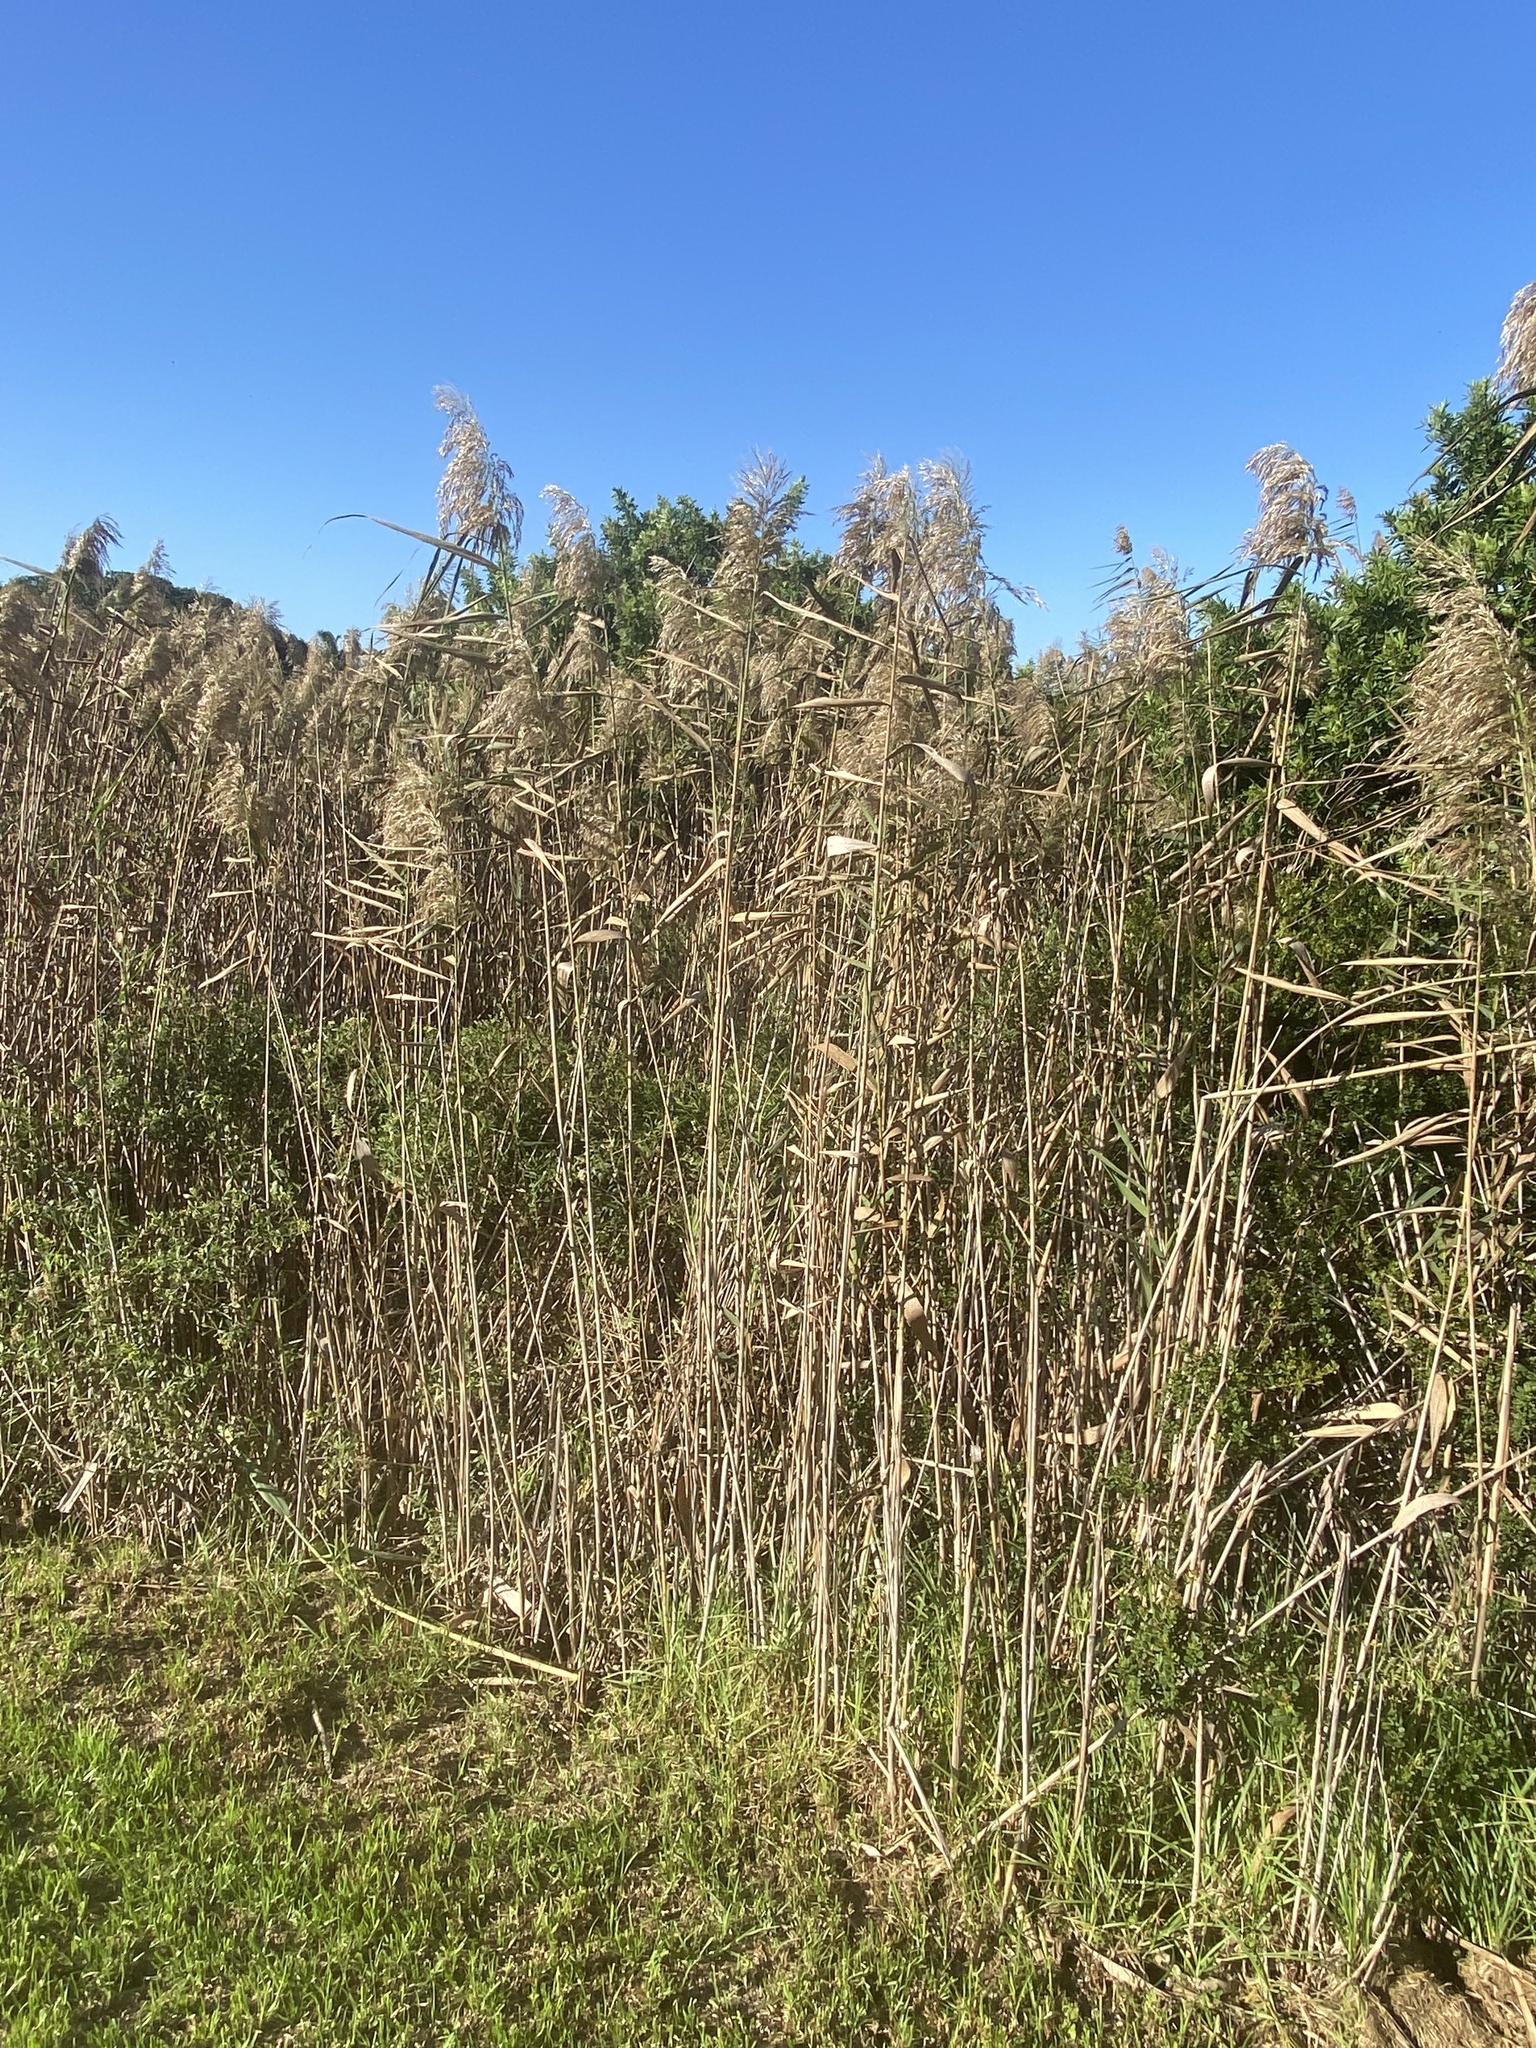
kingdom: Plantae
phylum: Tracheophyta
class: Liliopsida
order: Poales
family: Poaceae
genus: Phragmites
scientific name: Phragmites australis
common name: Common reed
